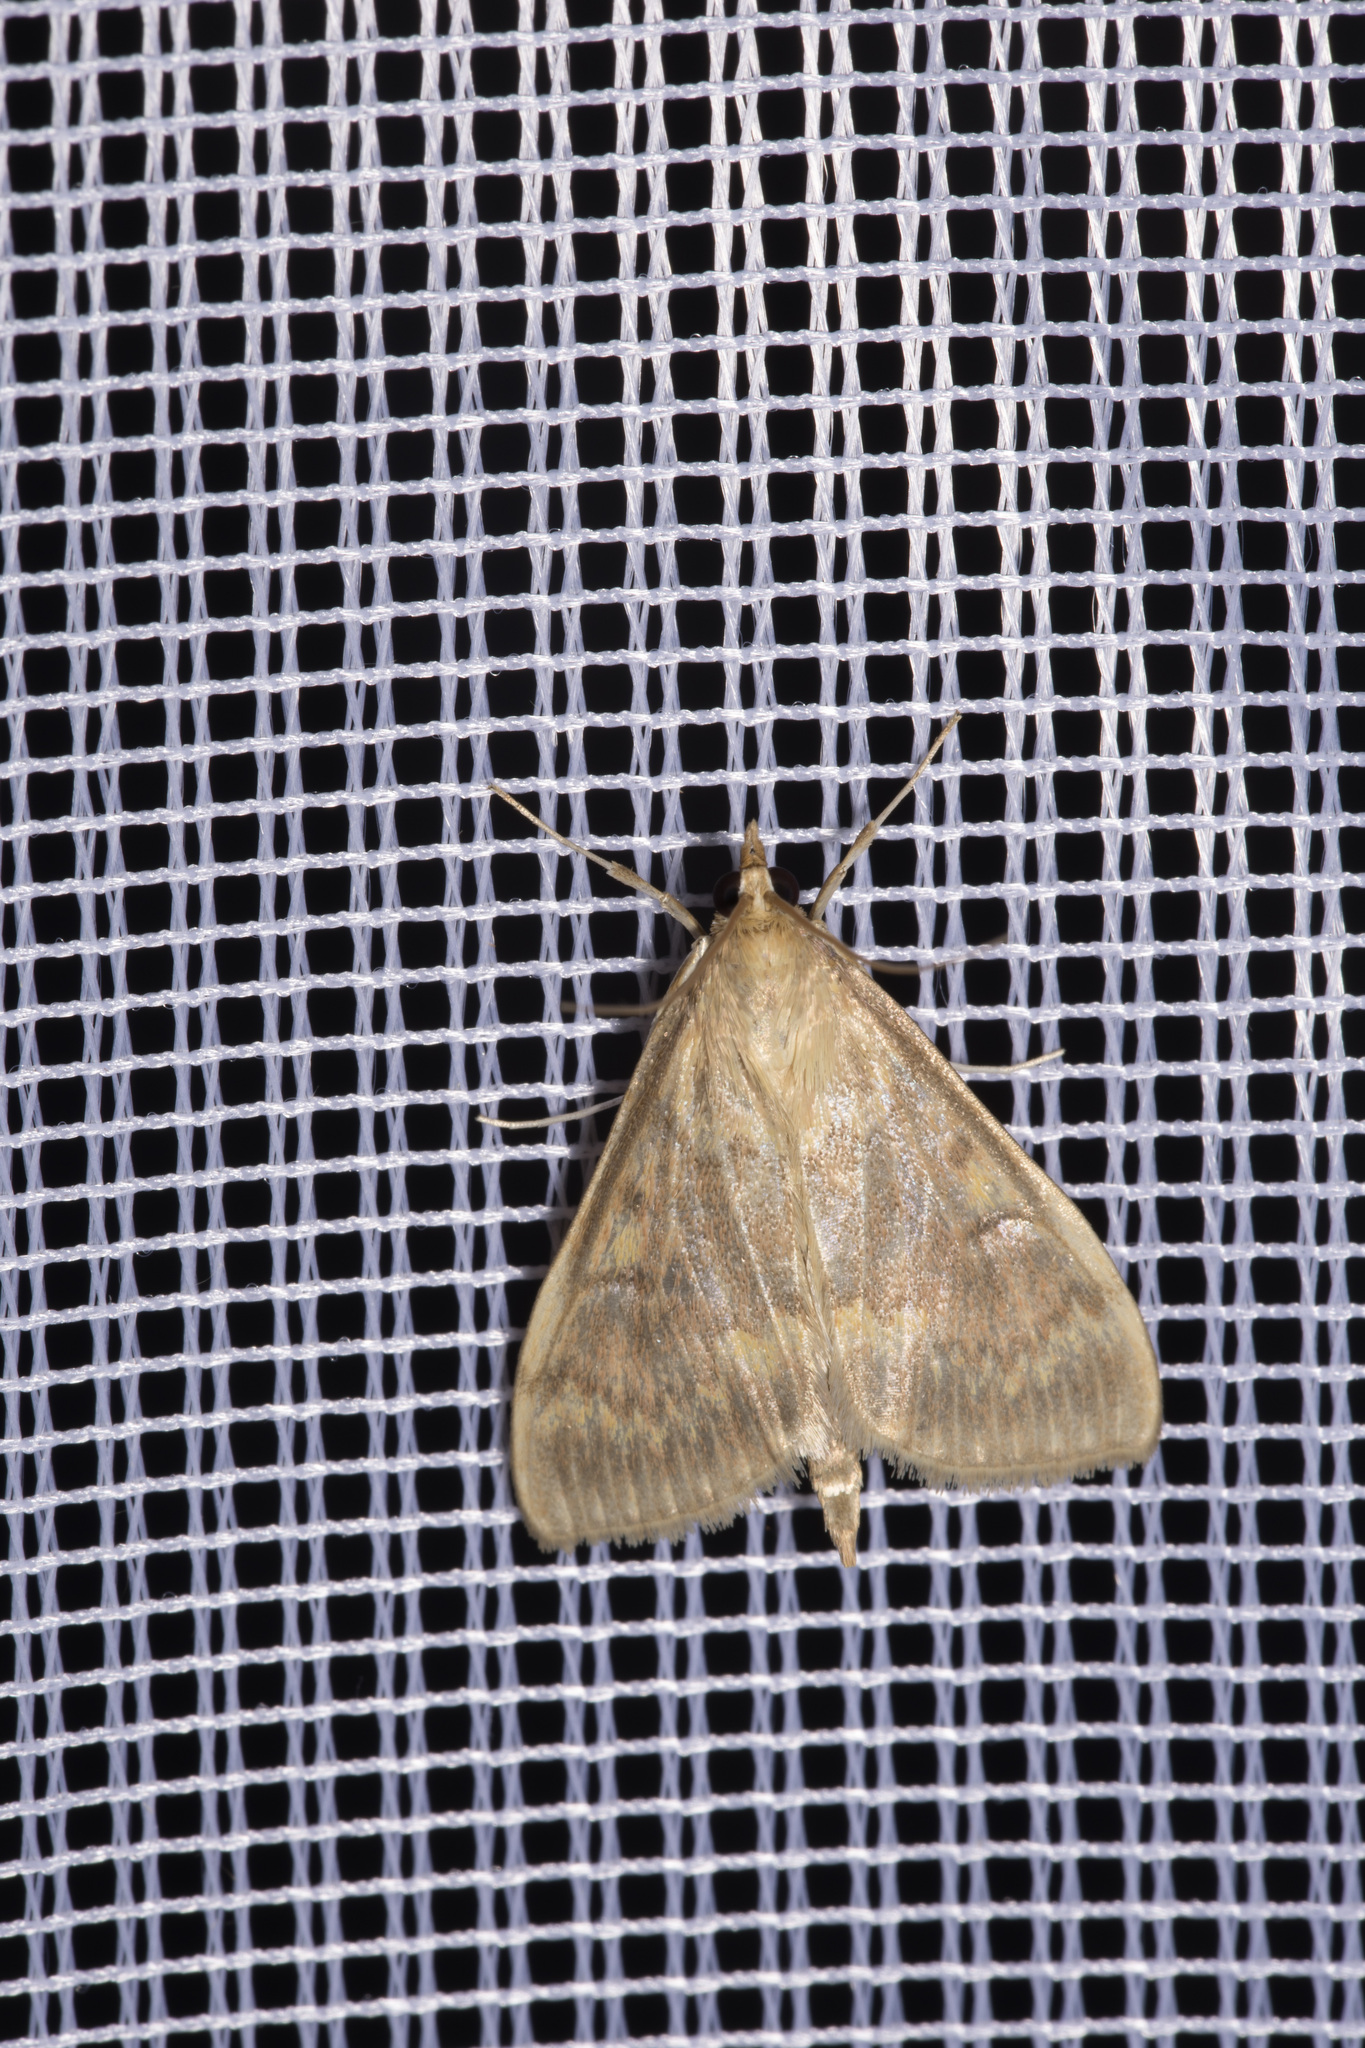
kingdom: Animalia
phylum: Arthropoda
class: Insecta
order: Lepidoptera
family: Crambidae
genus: Ostrinia
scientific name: Ostrinia nubilalis
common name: European corn borer
